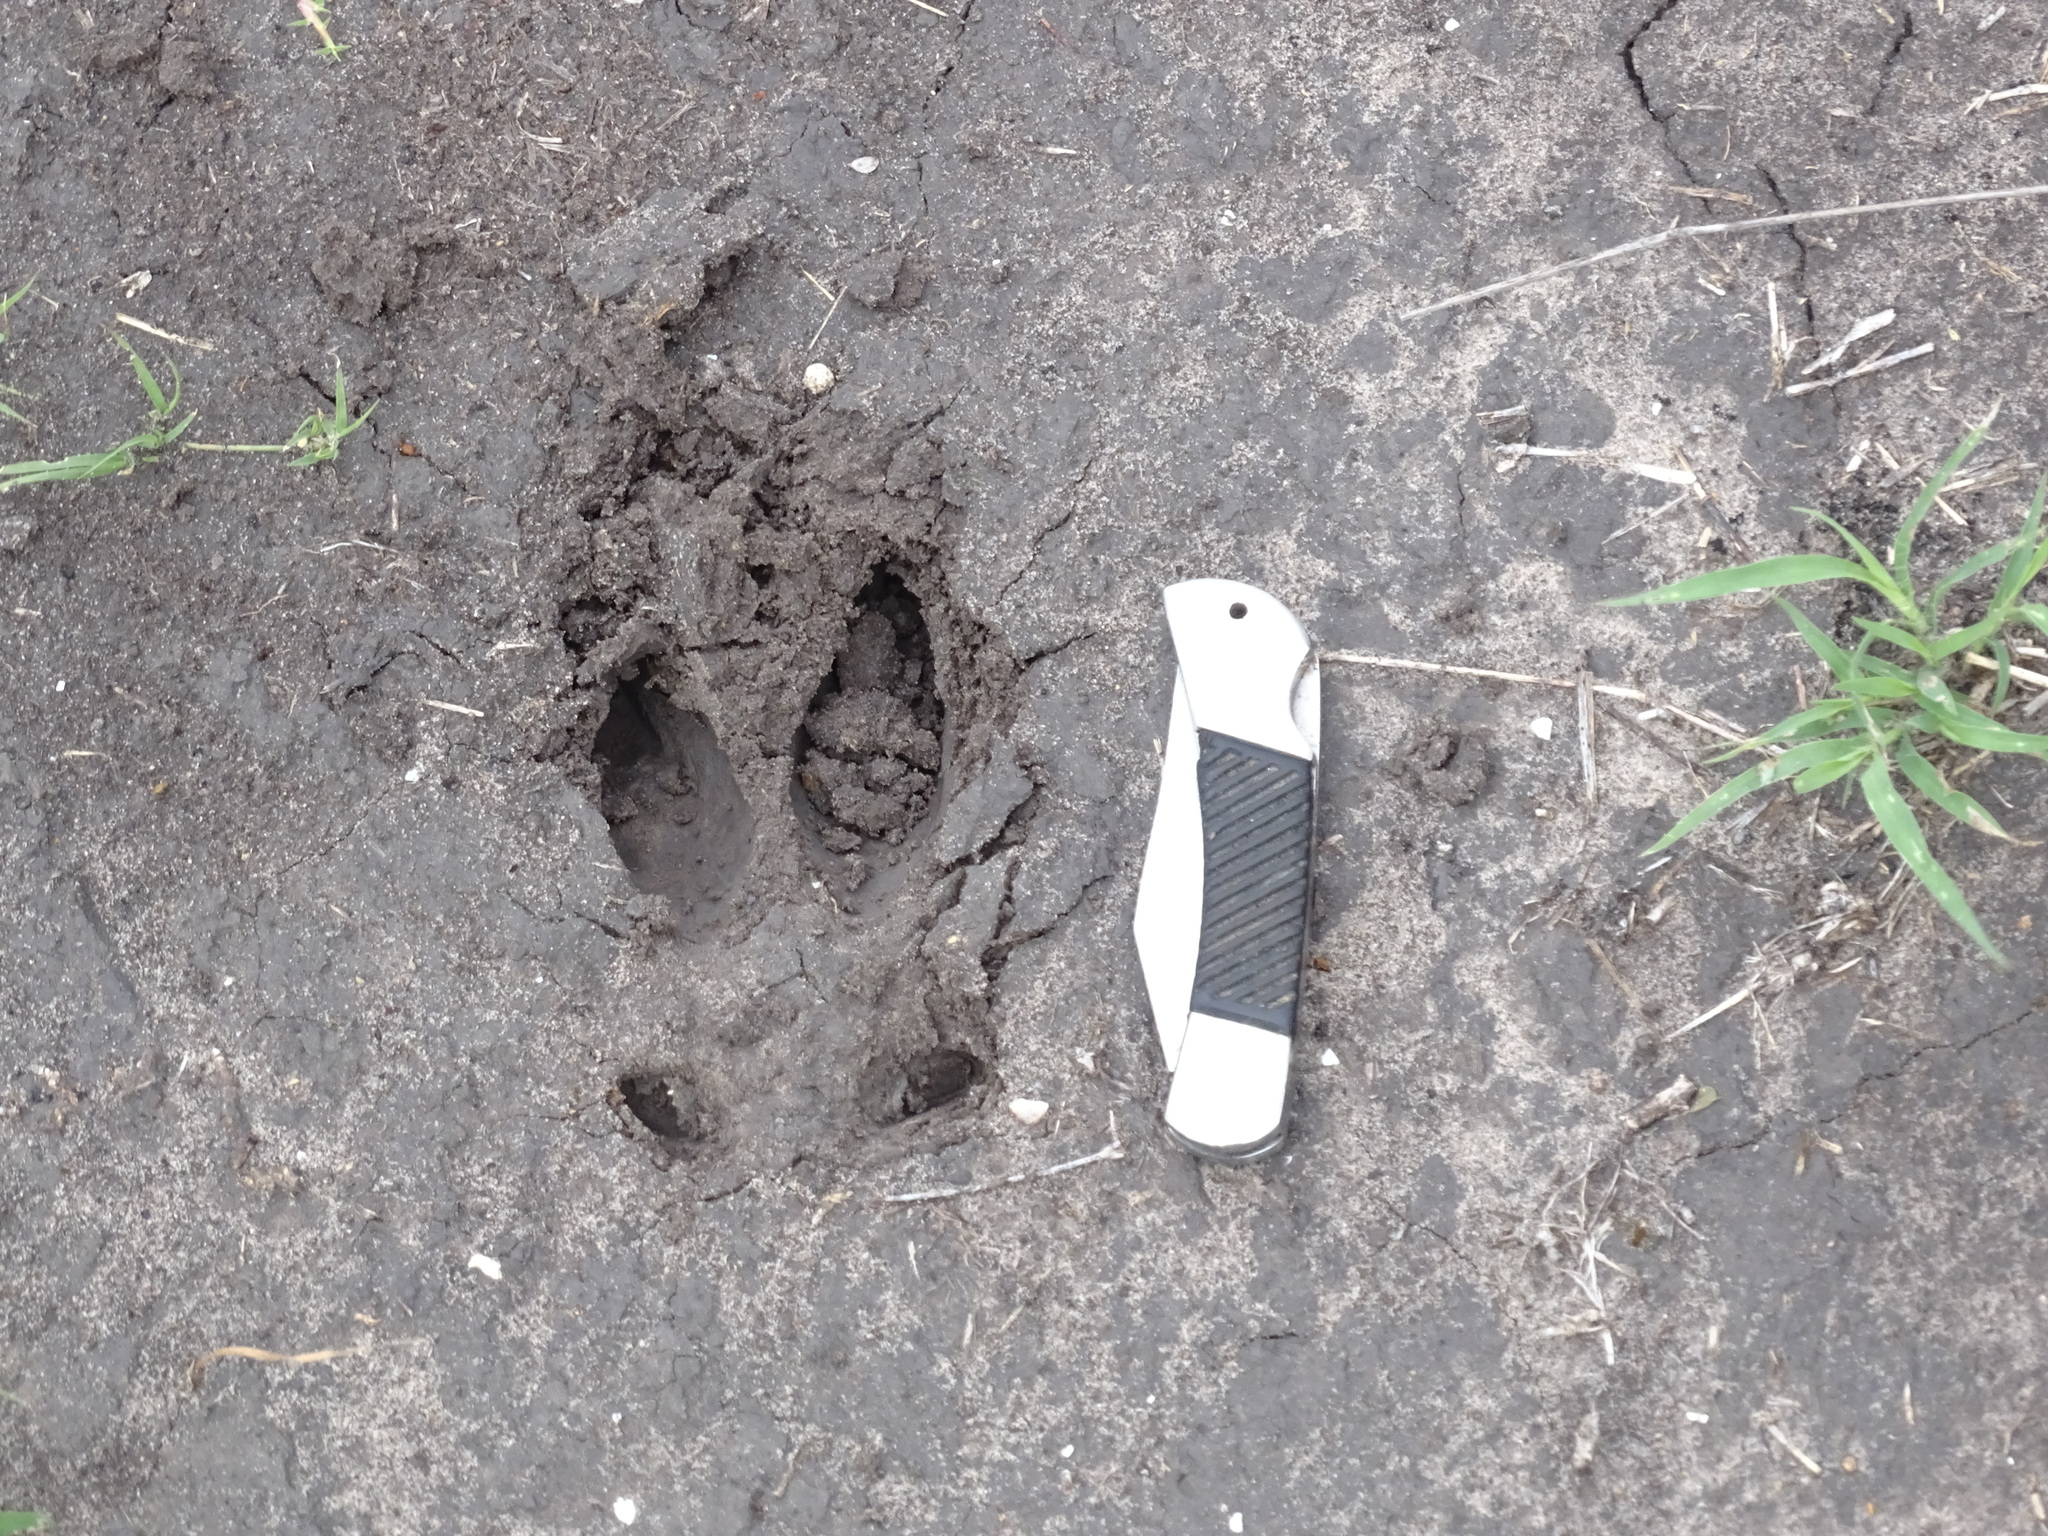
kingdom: Animalia
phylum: Chordata
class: Mammalia
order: Artiodactyla
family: Cervidae
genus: Odocoileus
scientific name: Odocoileus virginianus
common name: White-tailed deer
